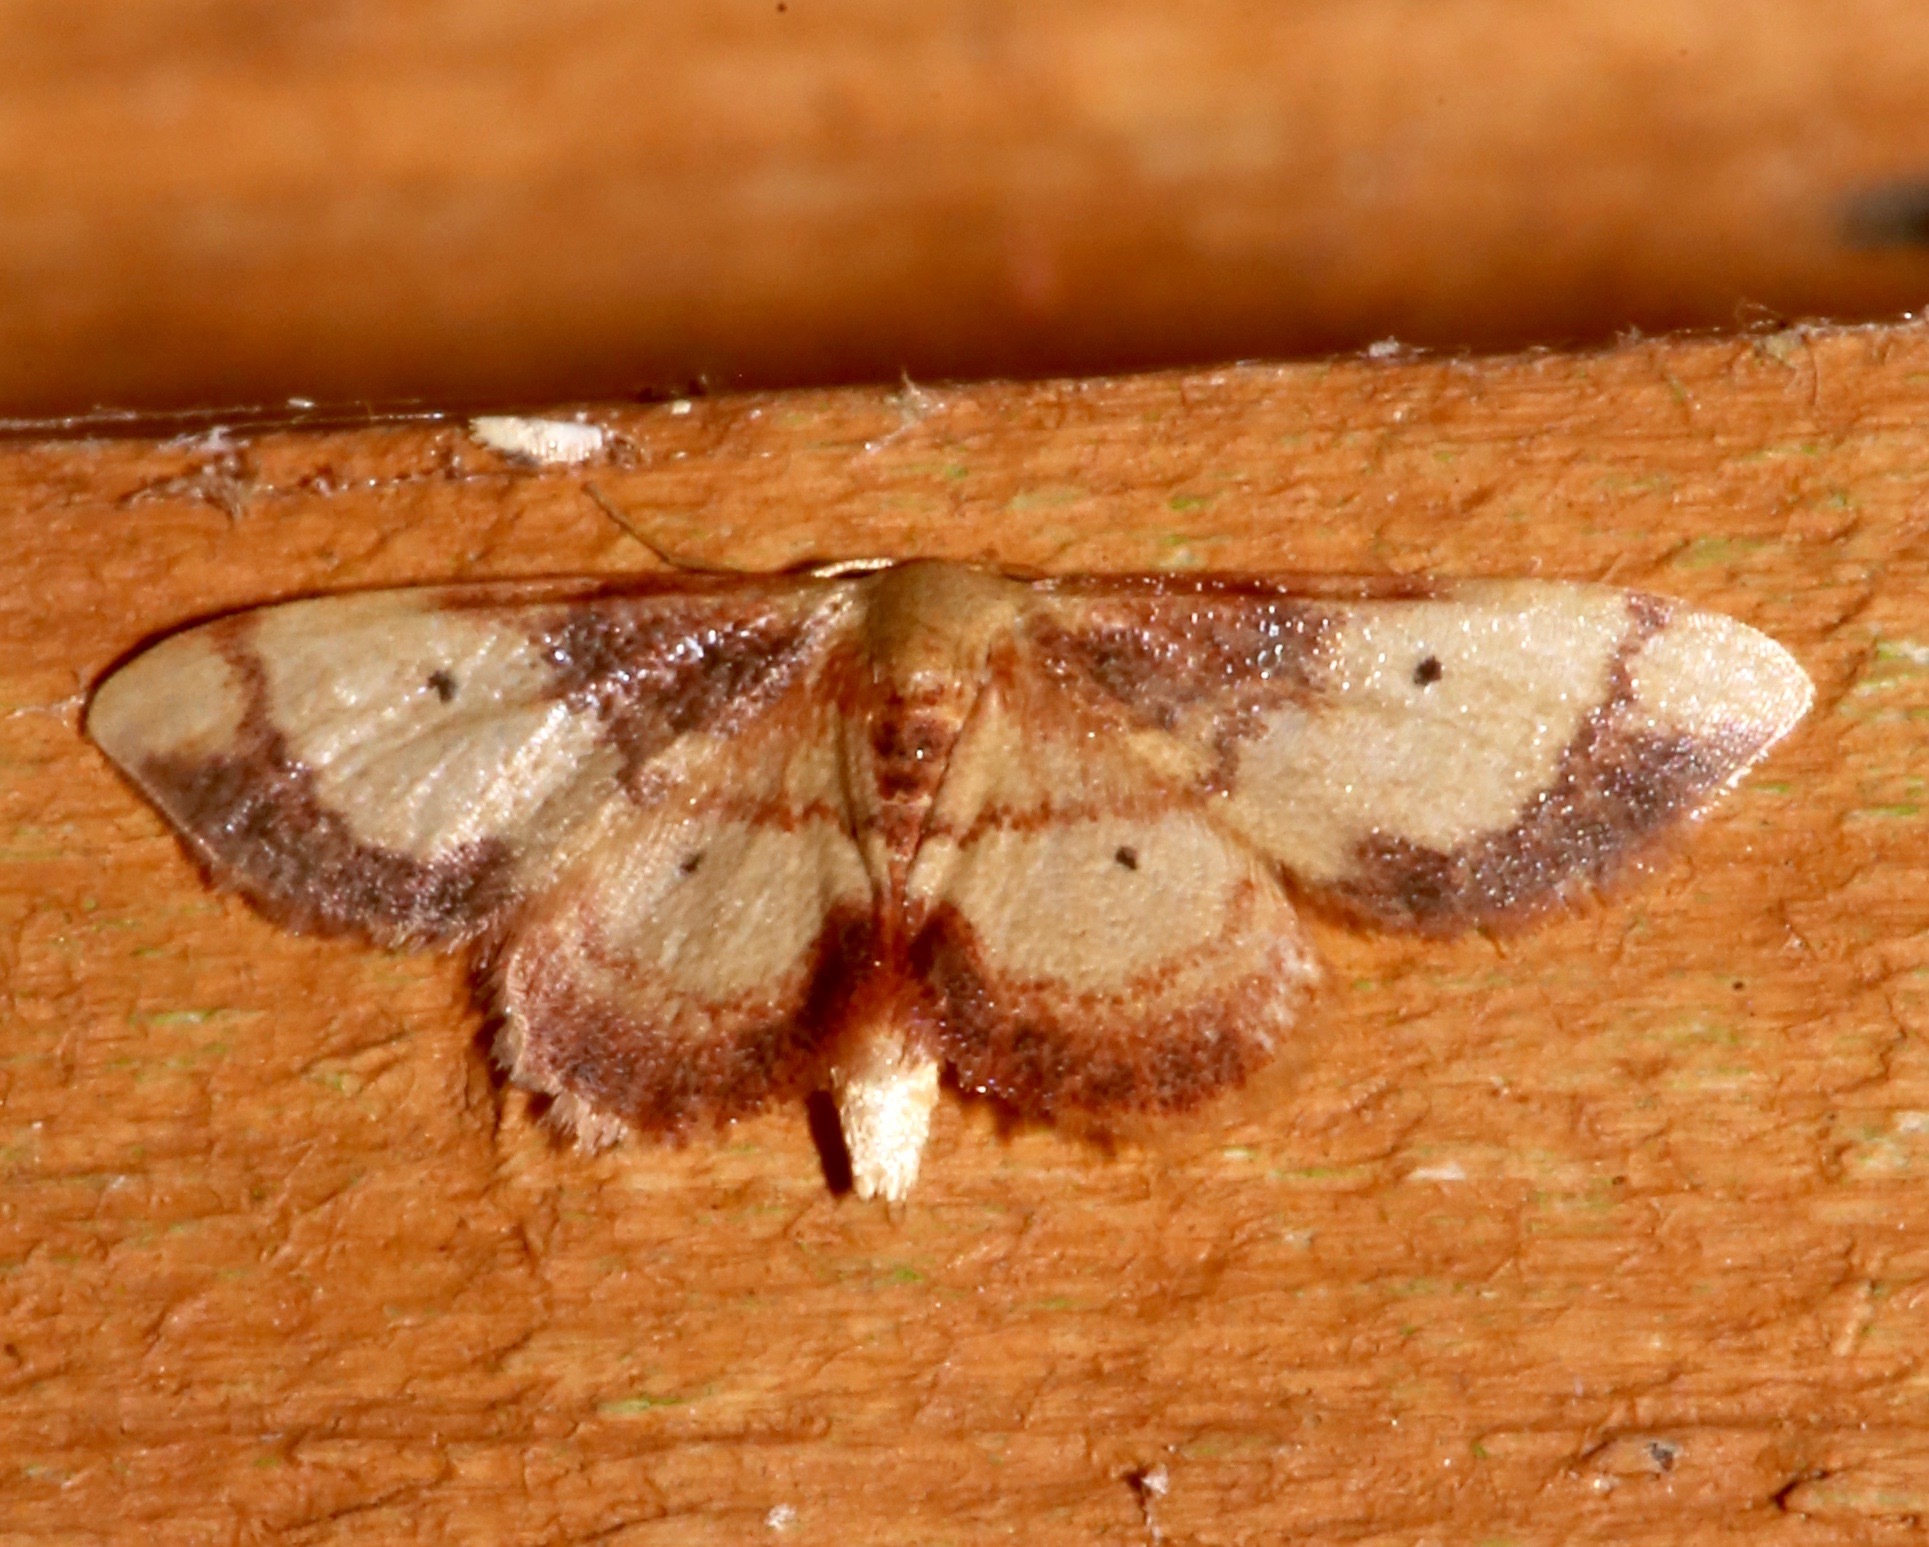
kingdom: Animalia
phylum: Arthropoda
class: Insecta
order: Lepidoptera
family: Geometridae
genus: Idaea
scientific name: Idaea demissaria
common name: Red-bordered wave
